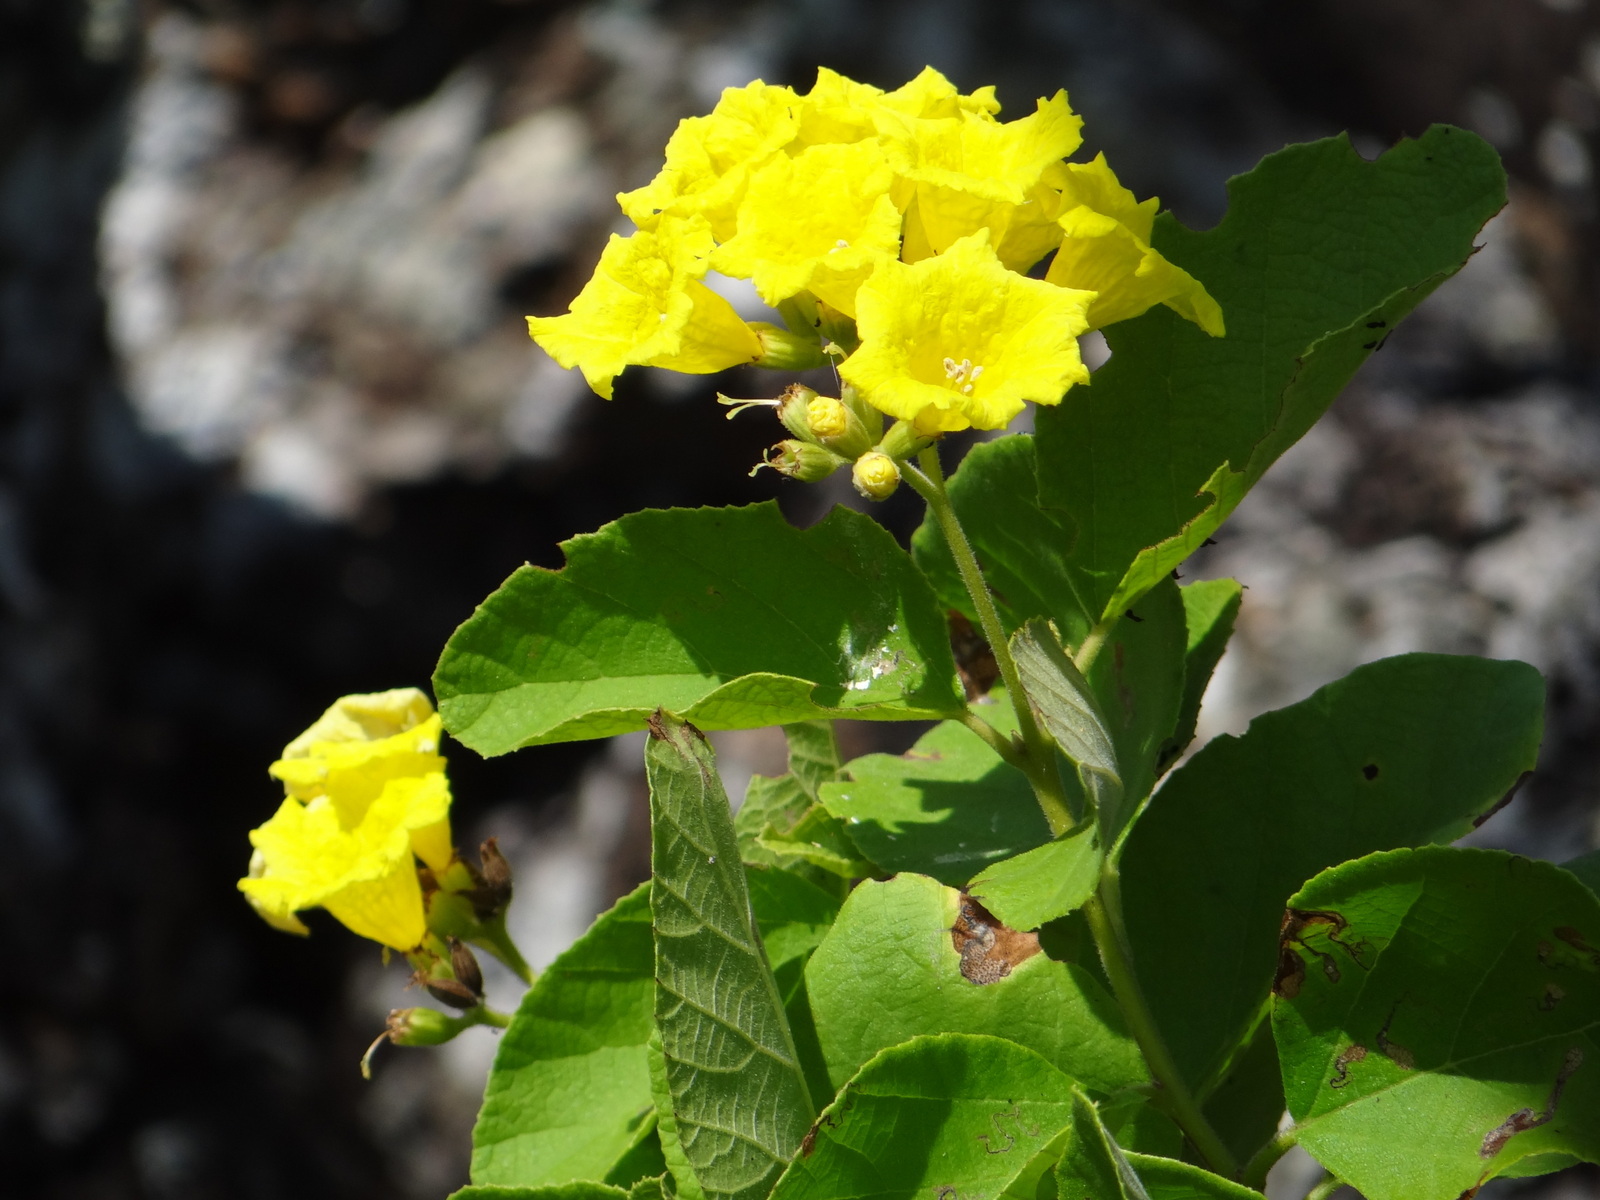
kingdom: Plantae
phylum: Tracheophyta
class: Magnoliopsida
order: Boraginales
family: Cordiaceae
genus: Cordia
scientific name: Cordia lutea
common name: Yellow geiger
